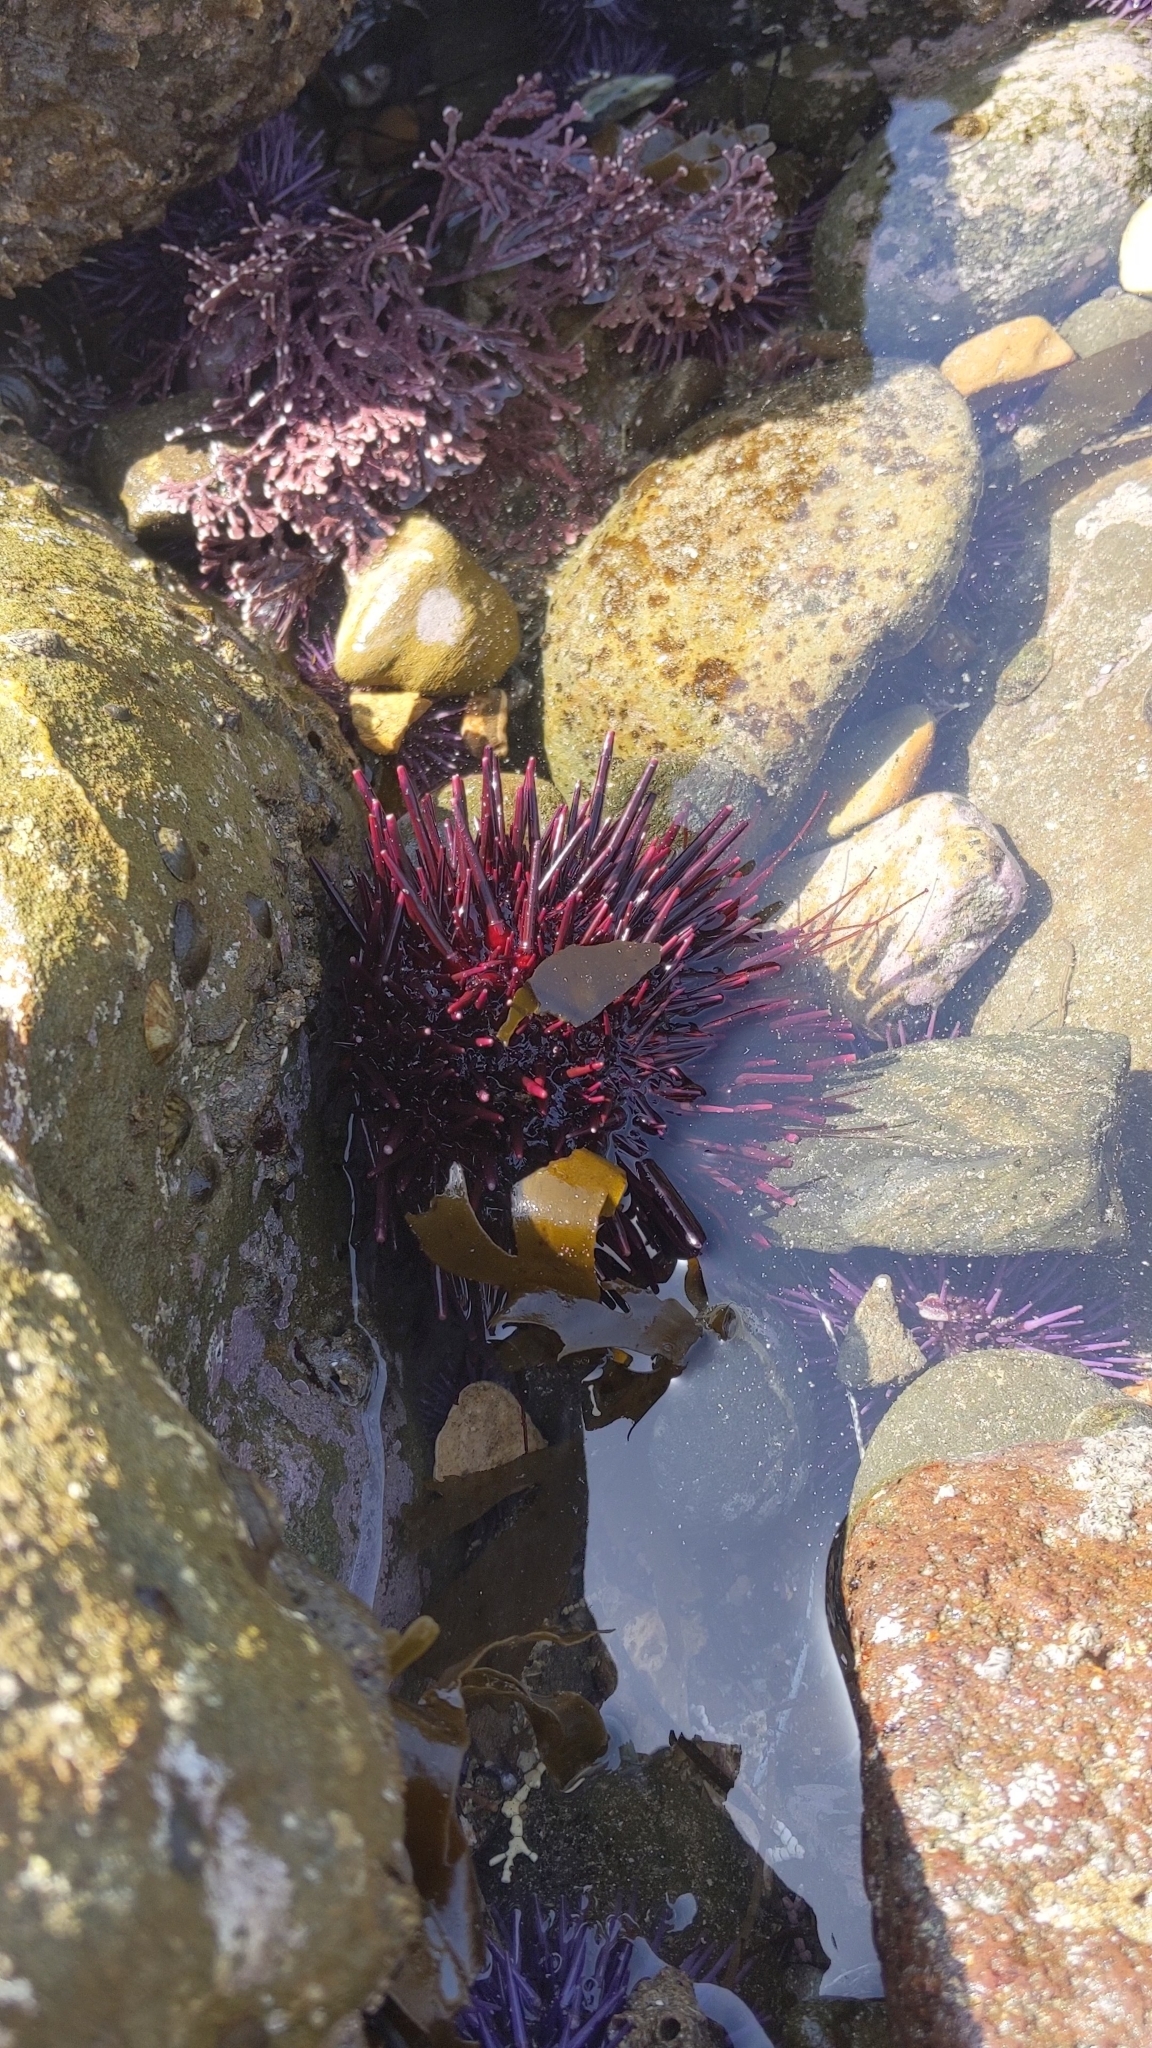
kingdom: Animalia
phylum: Echinodermata
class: Echinoidea
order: Camarodonta
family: Strongylocentrotidae
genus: Mesocentrotus
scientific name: Mesocentrotus franciscanus
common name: Red sea urchin
